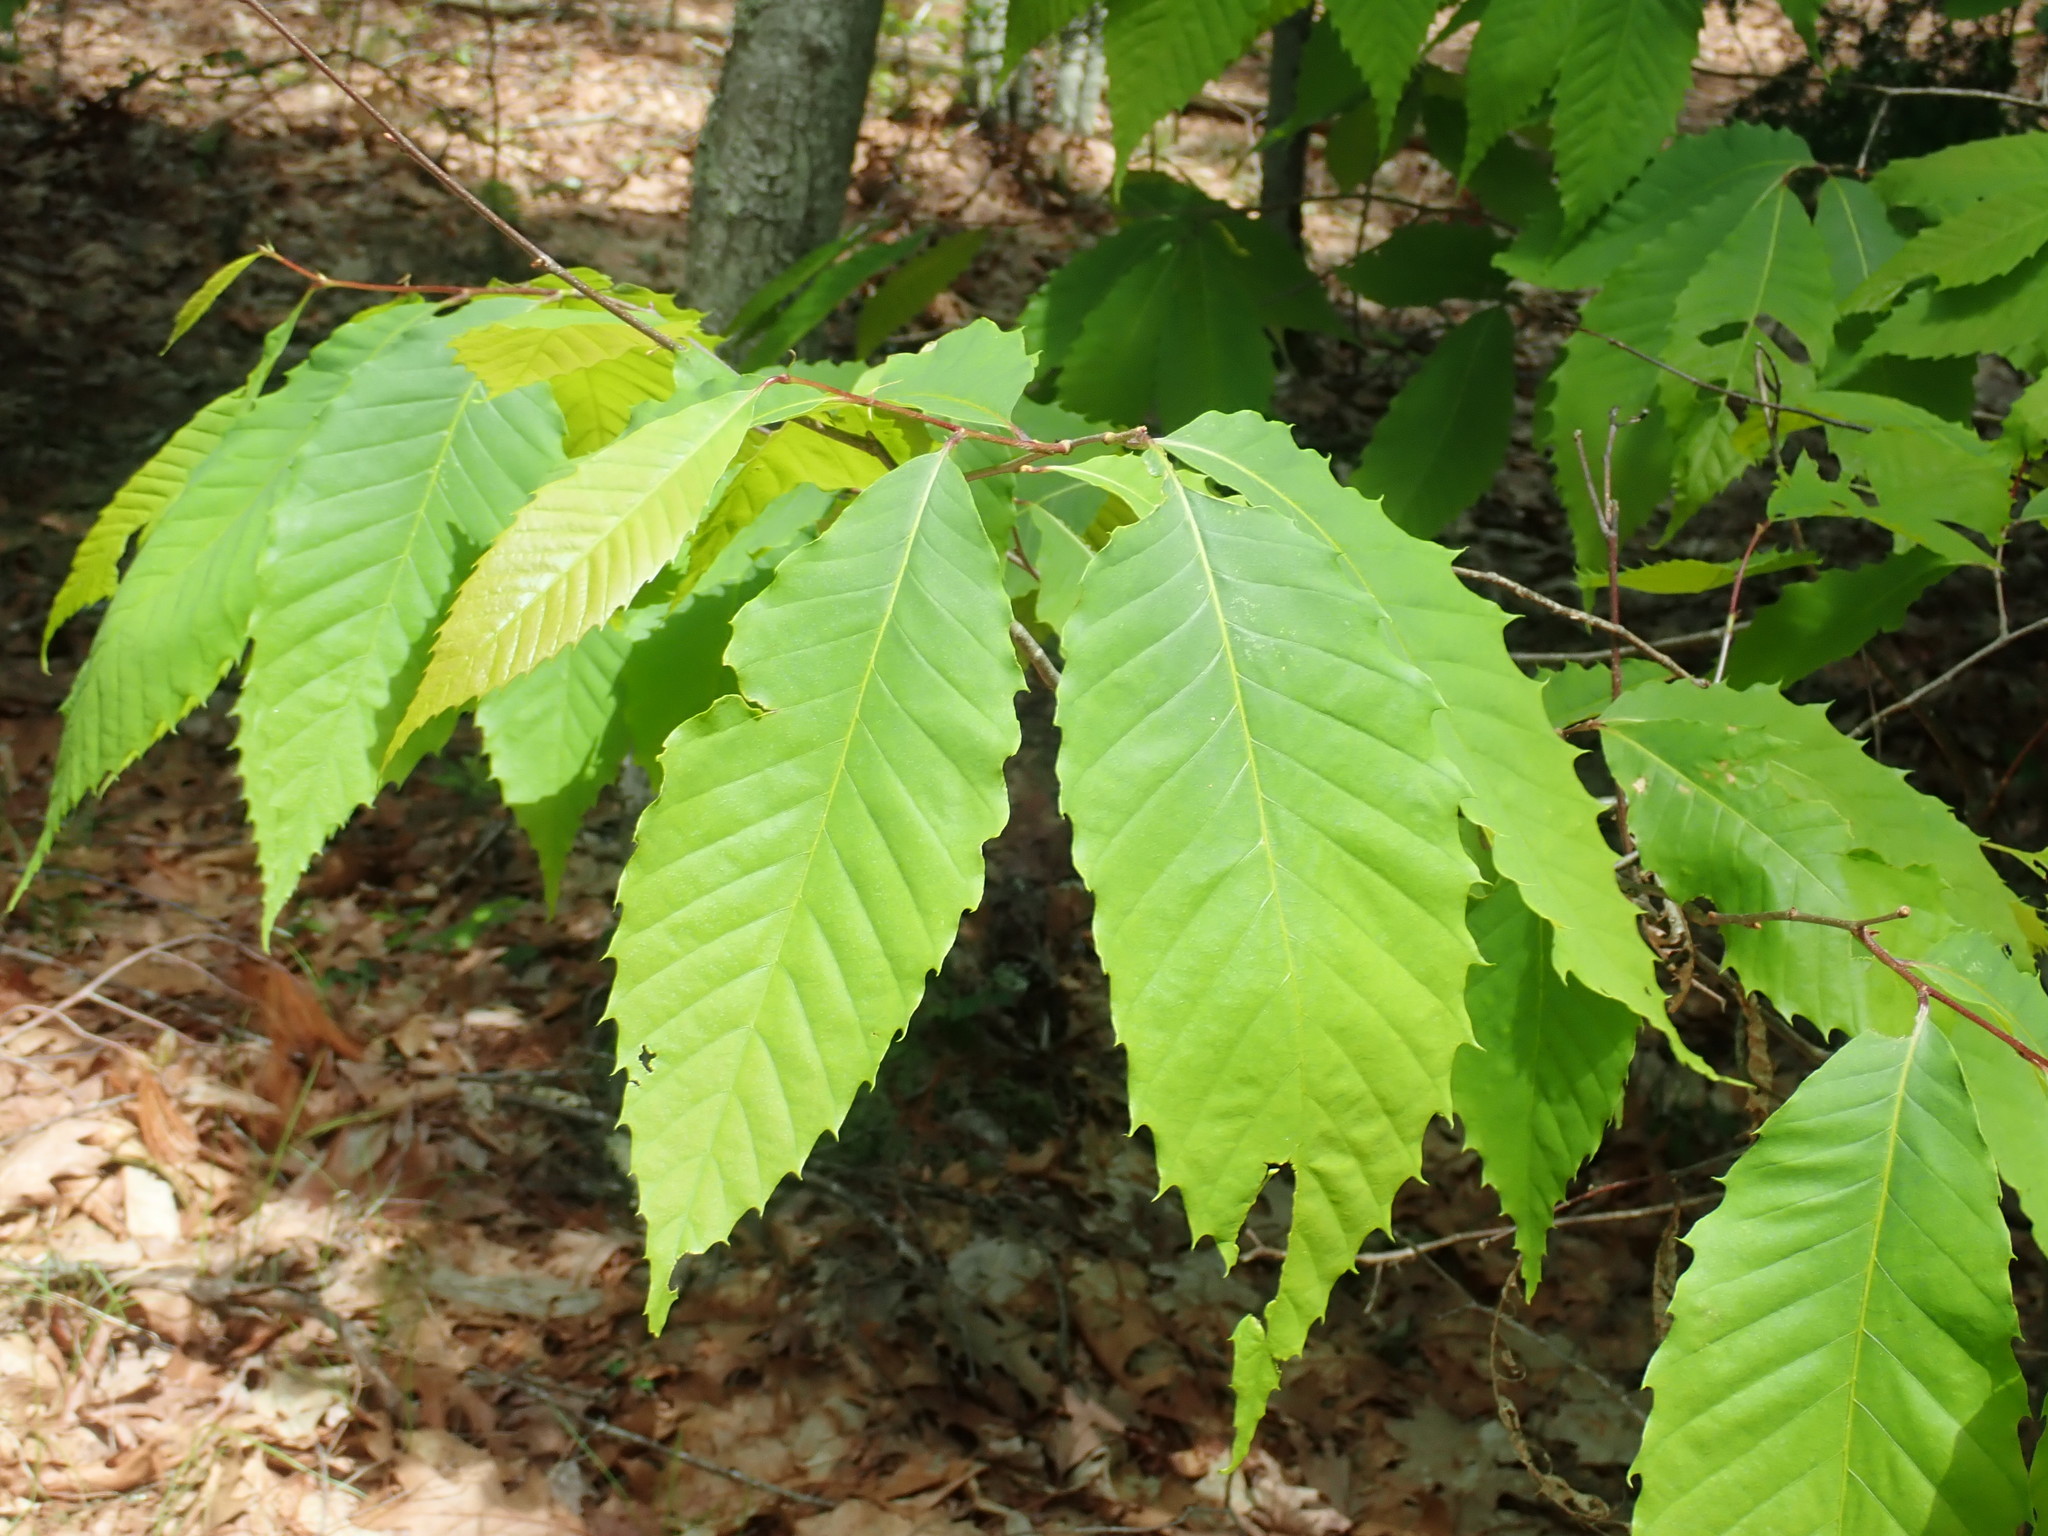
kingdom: Plantae
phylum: Tracheophyta
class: Magnoliopsida
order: Fagales
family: Fagaceae
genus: Castanea
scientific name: Castanea dentata
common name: American chestnut
